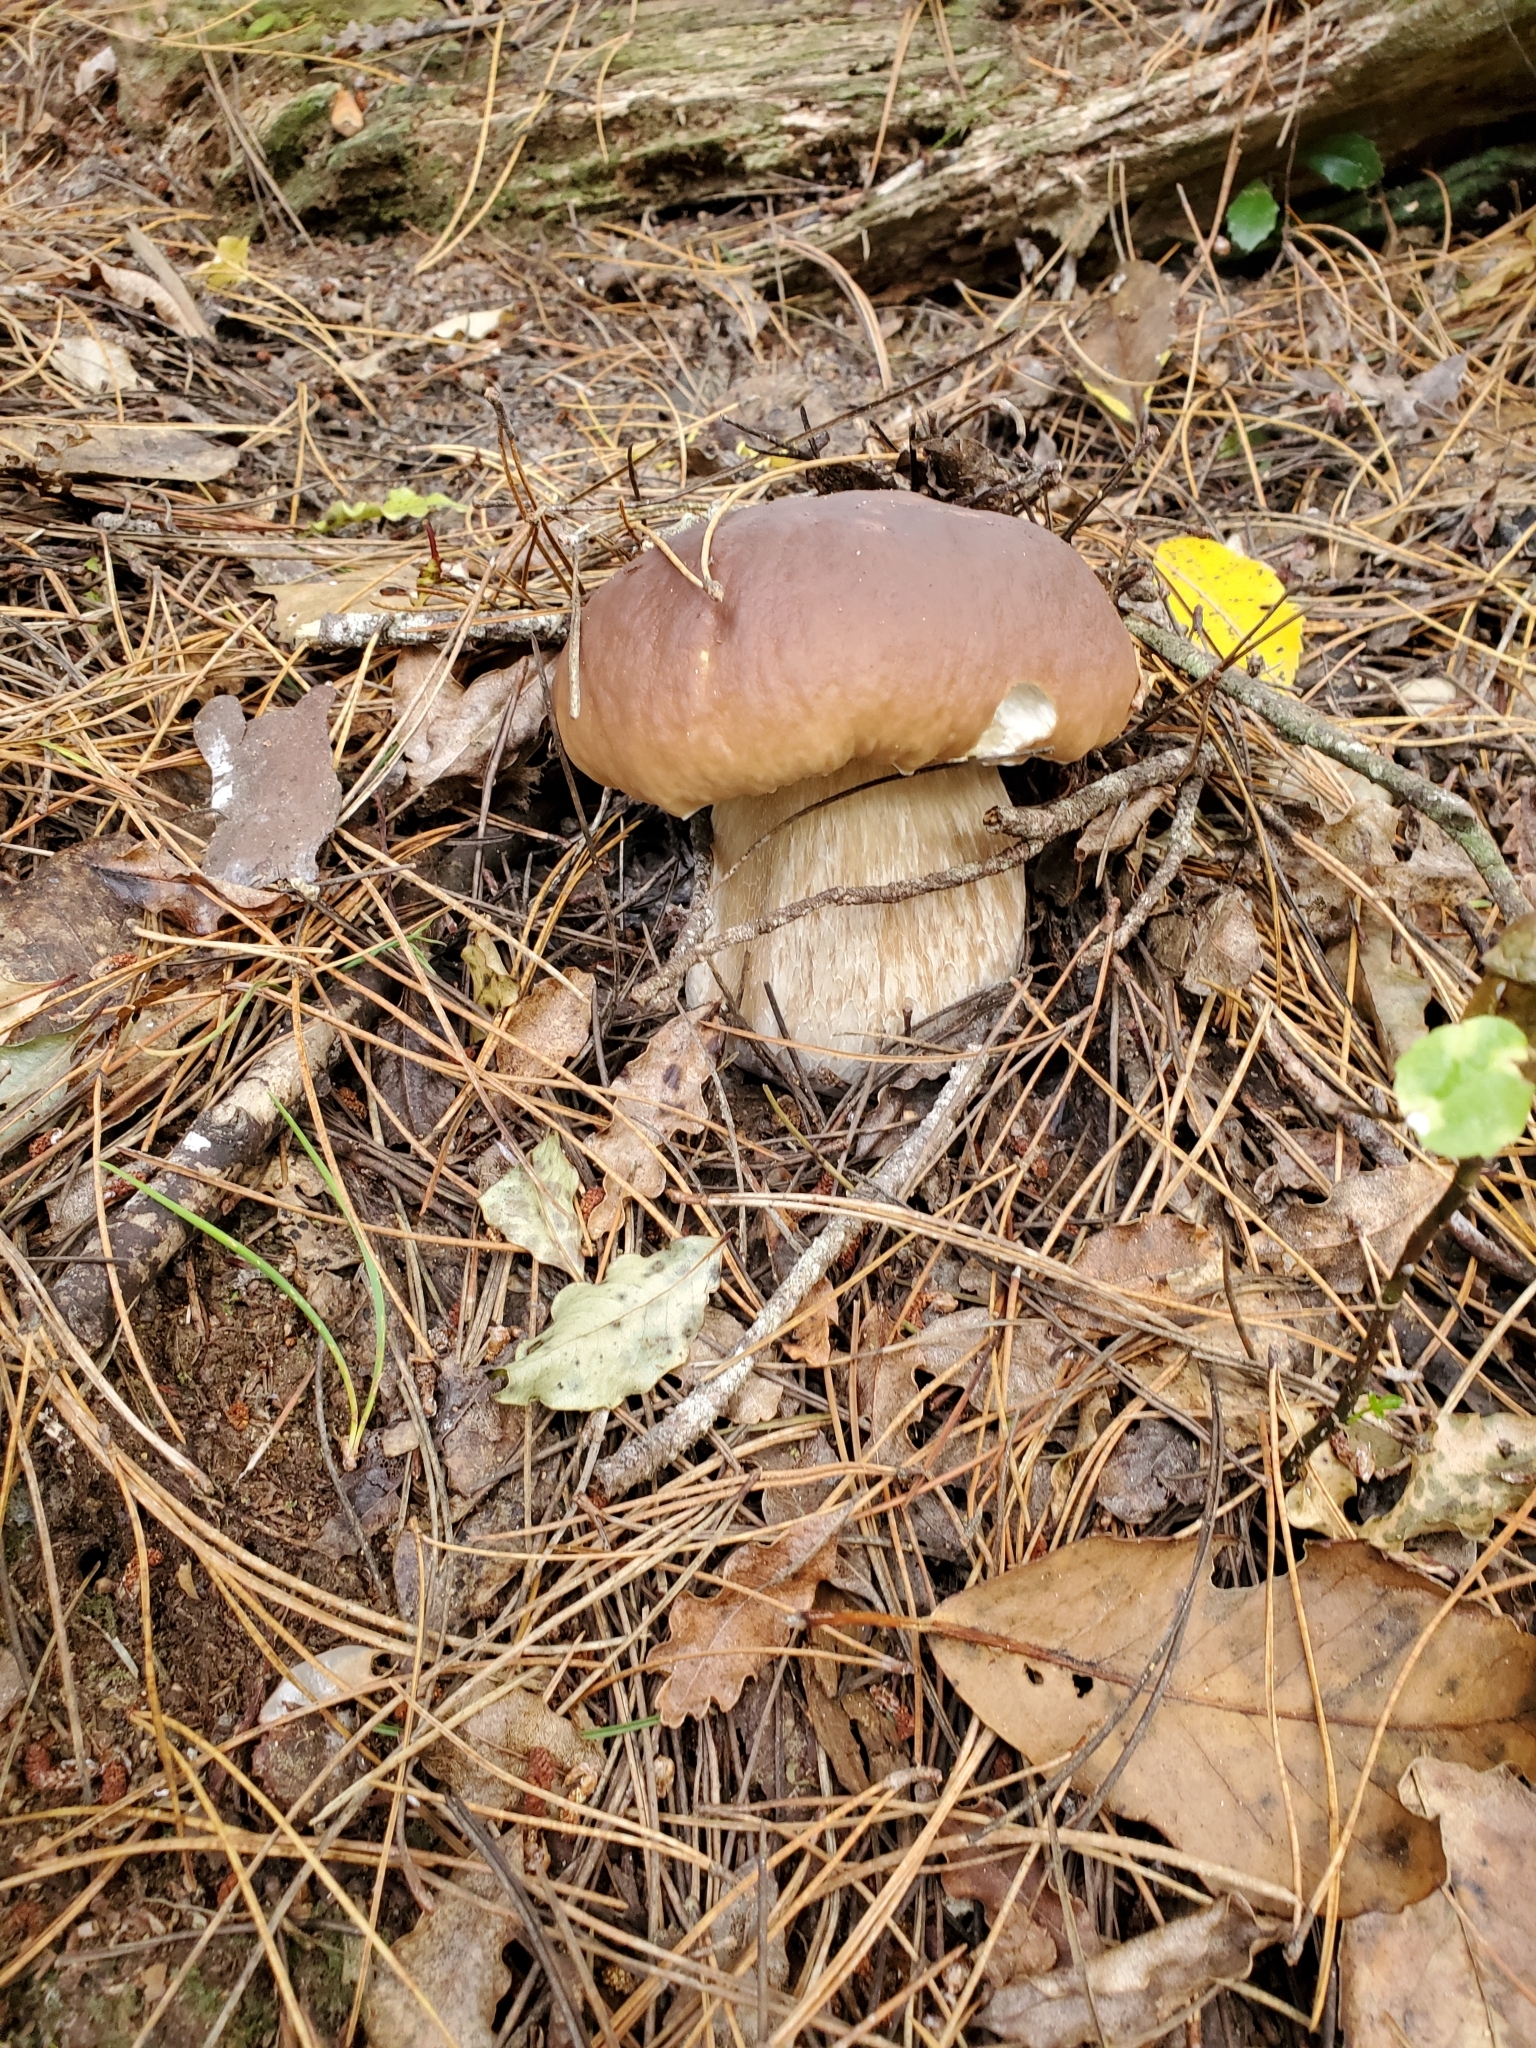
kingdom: Fungi
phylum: Basidiomycota
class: Agaricomycetes
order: Boletales
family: Boletaceae
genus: Boletus
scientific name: Boletus edulis
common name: Cep
